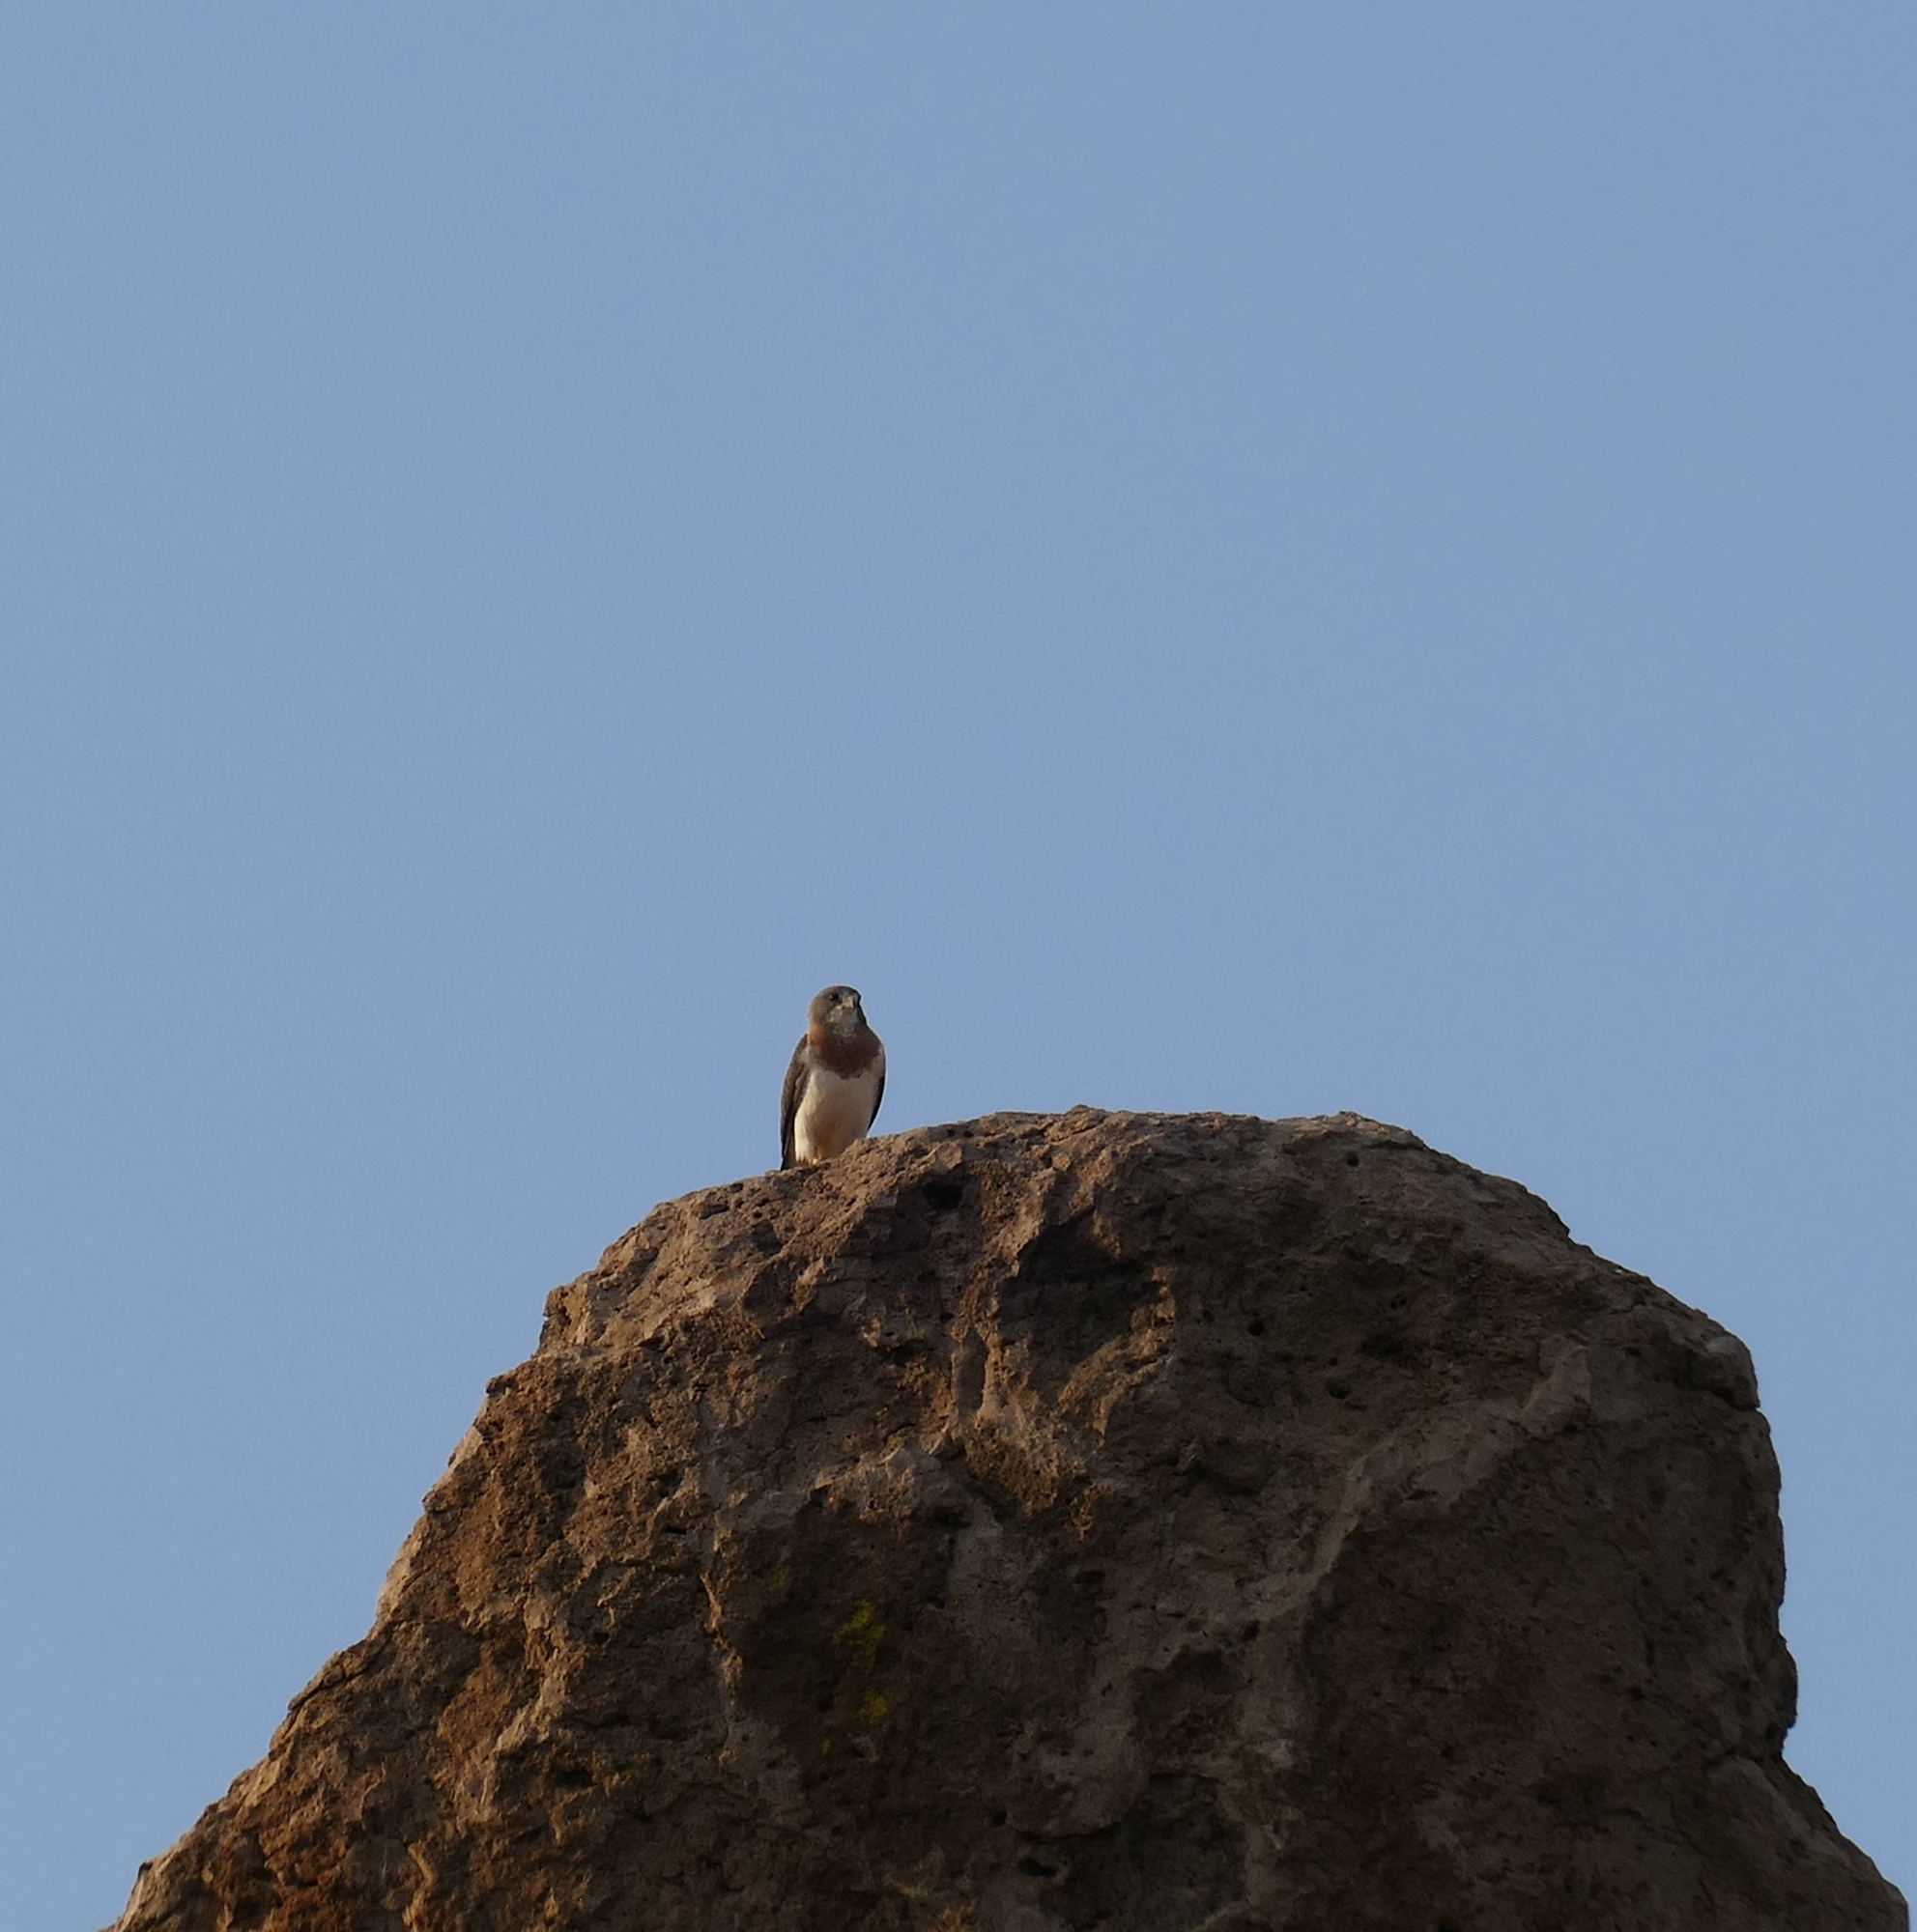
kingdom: Animalia
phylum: Chordata
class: Aves
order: Accipitriformes
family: Accipitridae
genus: Buteo
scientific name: Buteo swainsoni
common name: Swainson's hawk
